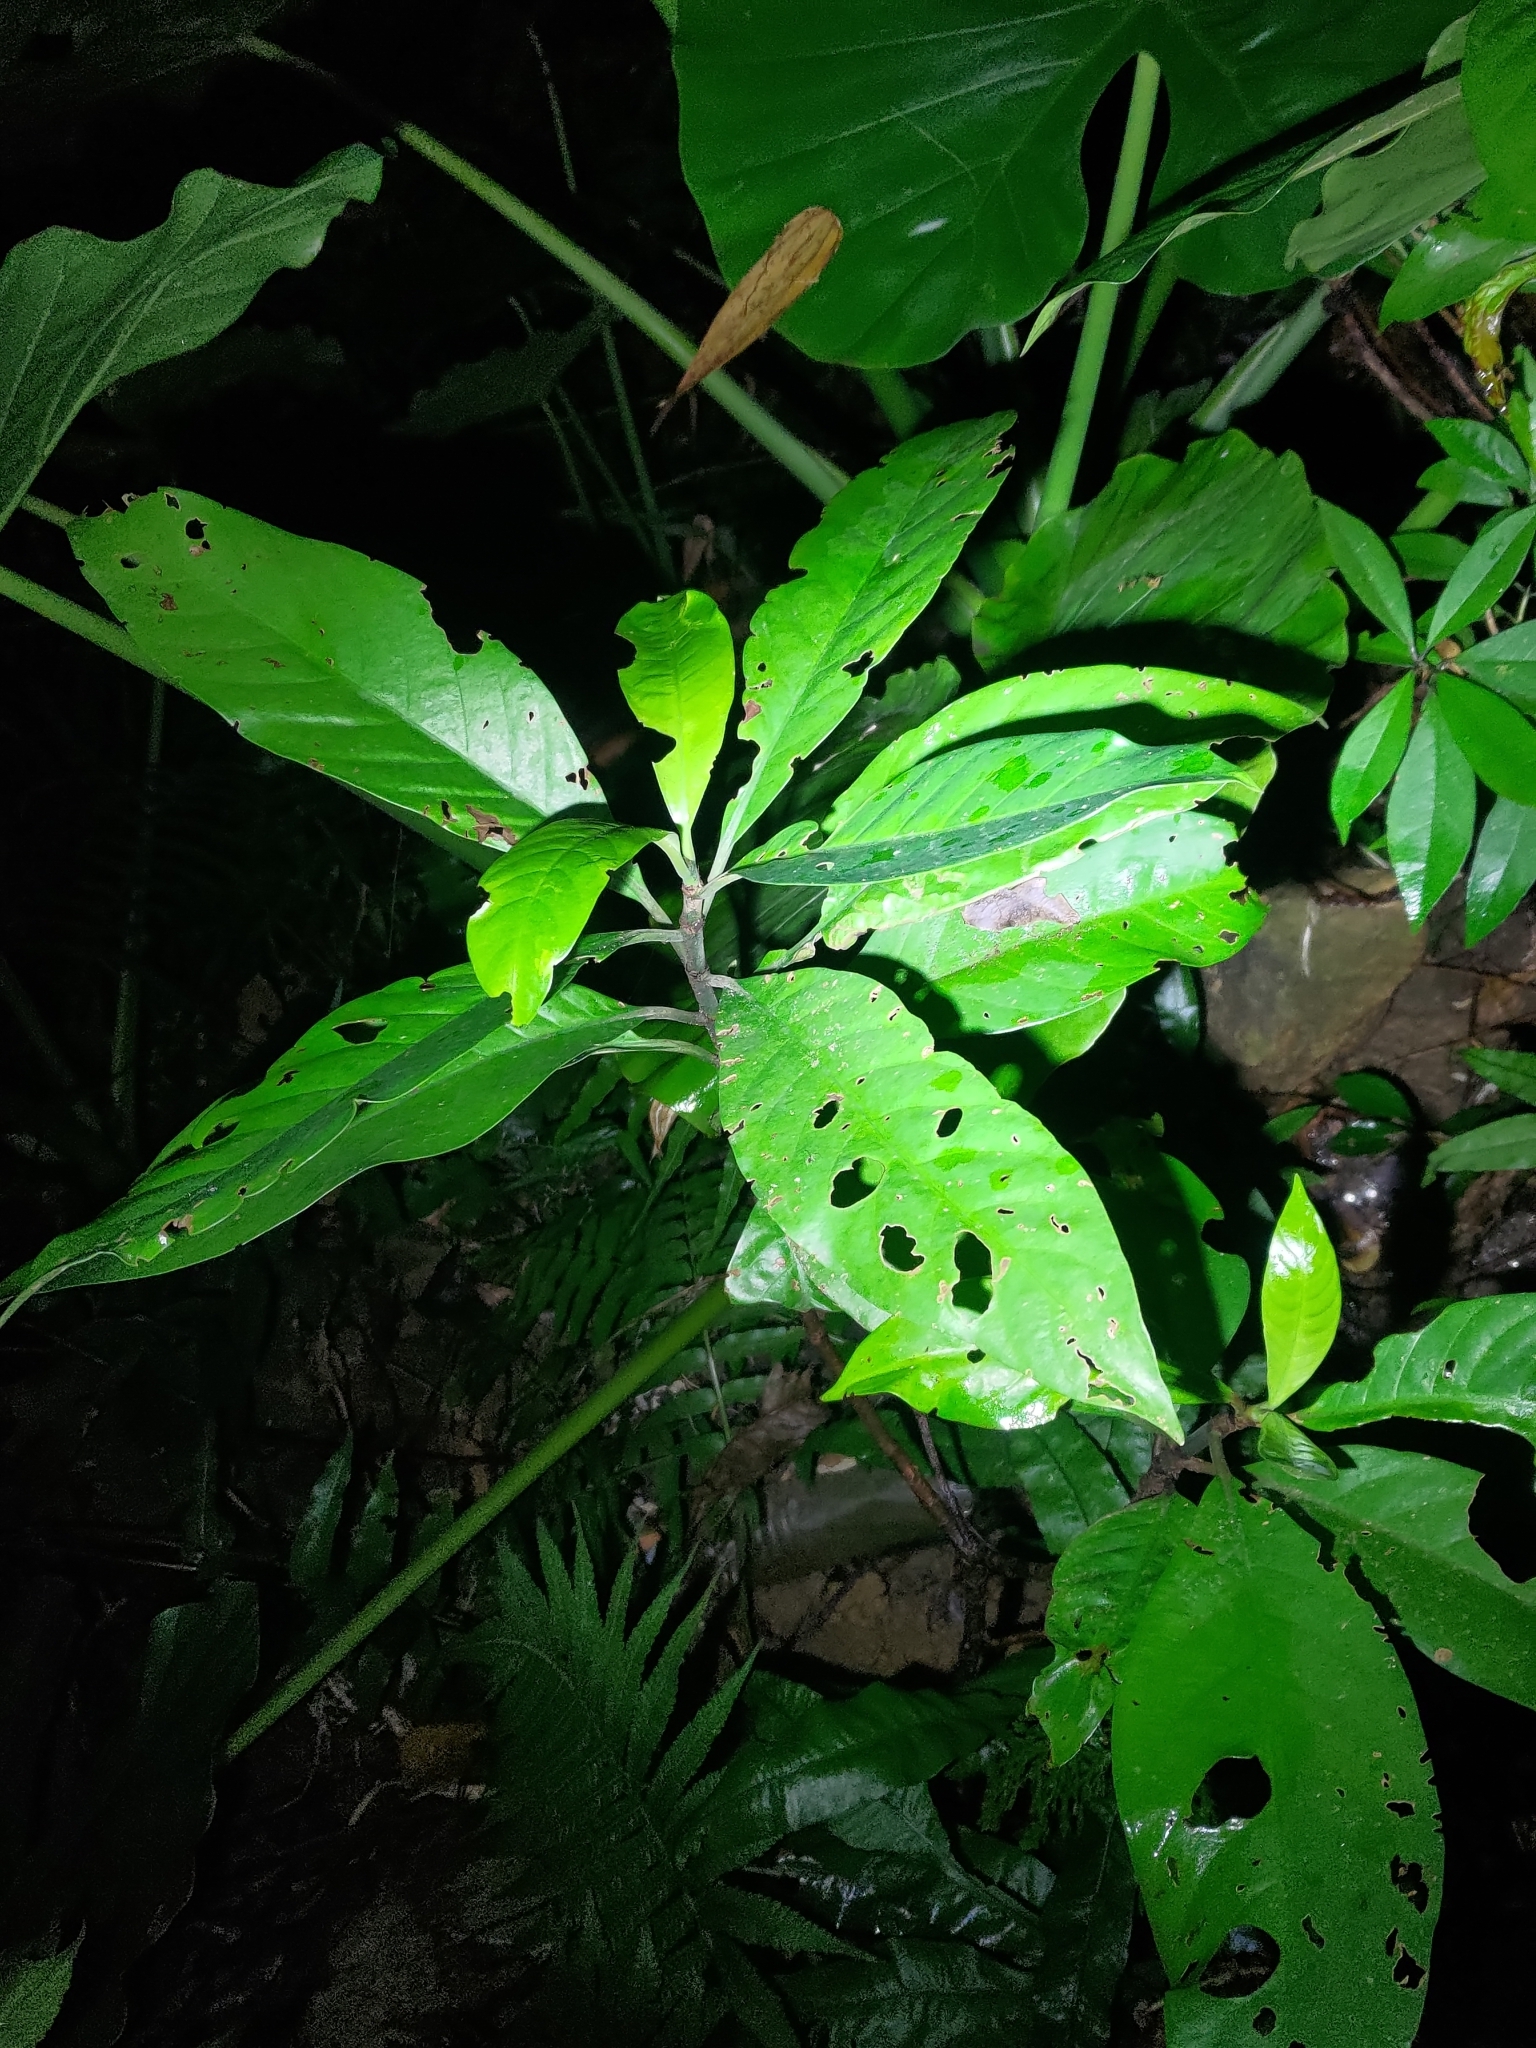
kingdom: Plantae
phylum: Tracheophyta
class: Magnoliopsida
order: Gentianales
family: Rubiaceae
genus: Psychotria
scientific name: Psychotria asiatica
